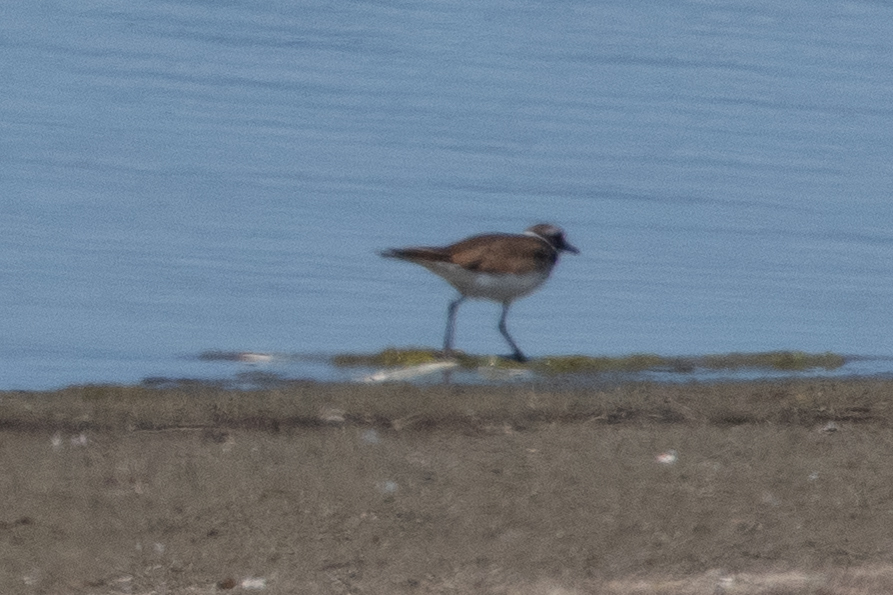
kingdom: Animalia
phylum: Chordata
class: Aves
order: Charadriiformes
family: Charadriidae
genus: Charadrius
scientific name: Charadrius vociferus
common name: Killdeer
